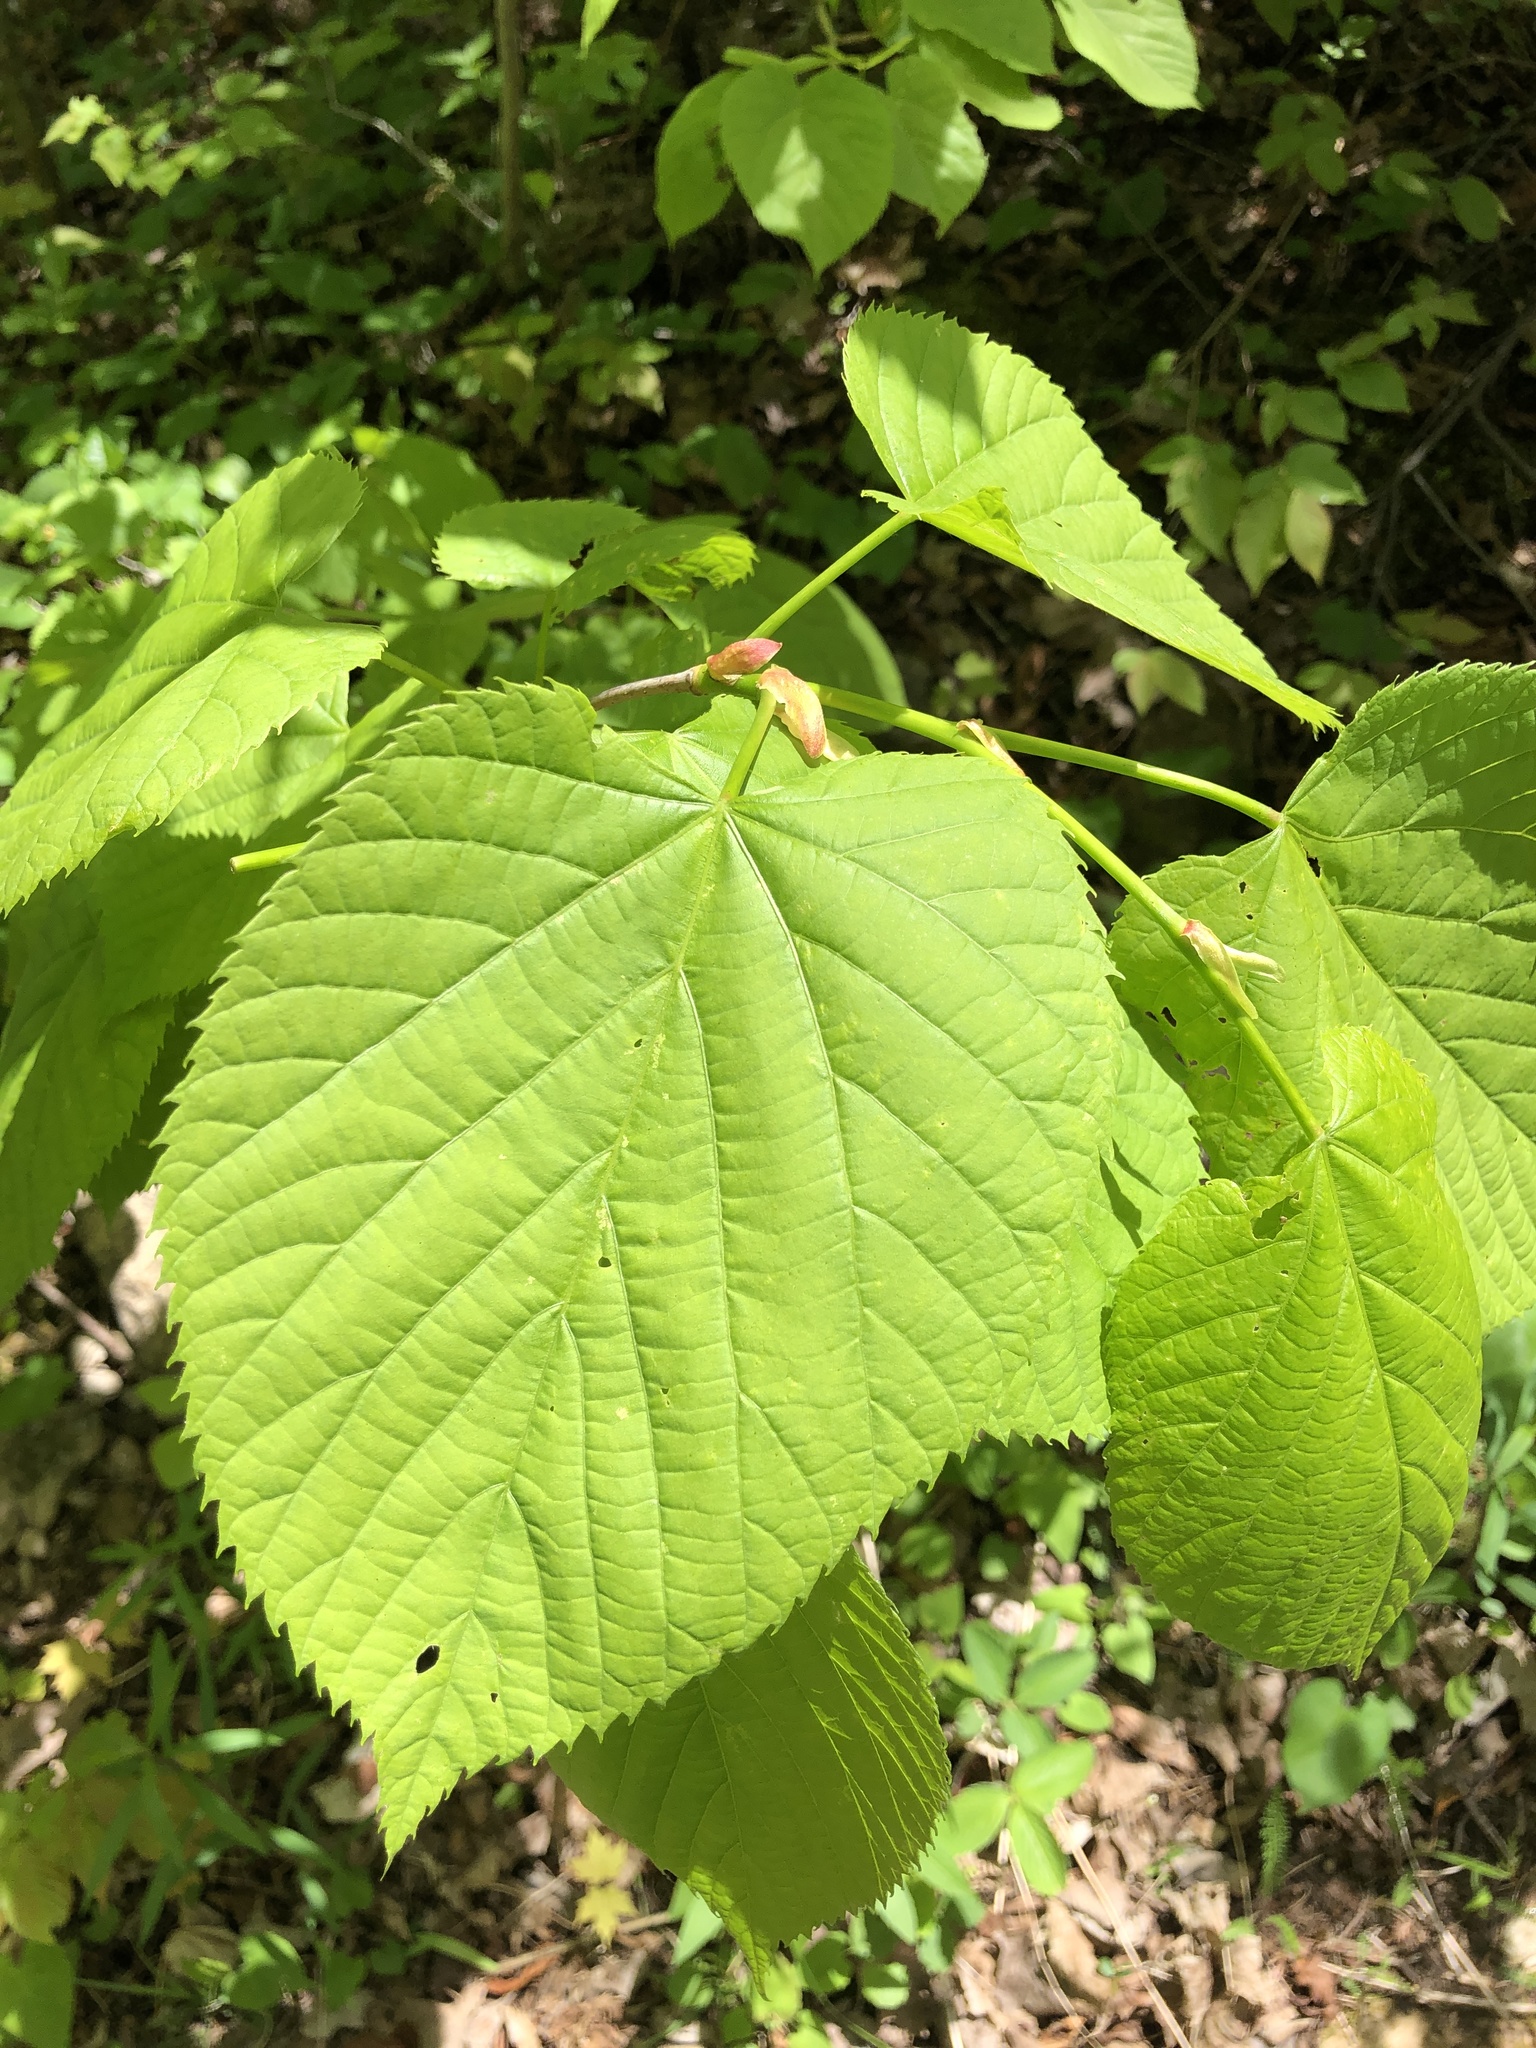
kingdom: Plantae
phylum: Tracheophyta
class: Magnoliopsida
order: Malvales
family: Malvaceae
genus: Tilia
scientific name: Tilia americana
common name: Basswood
